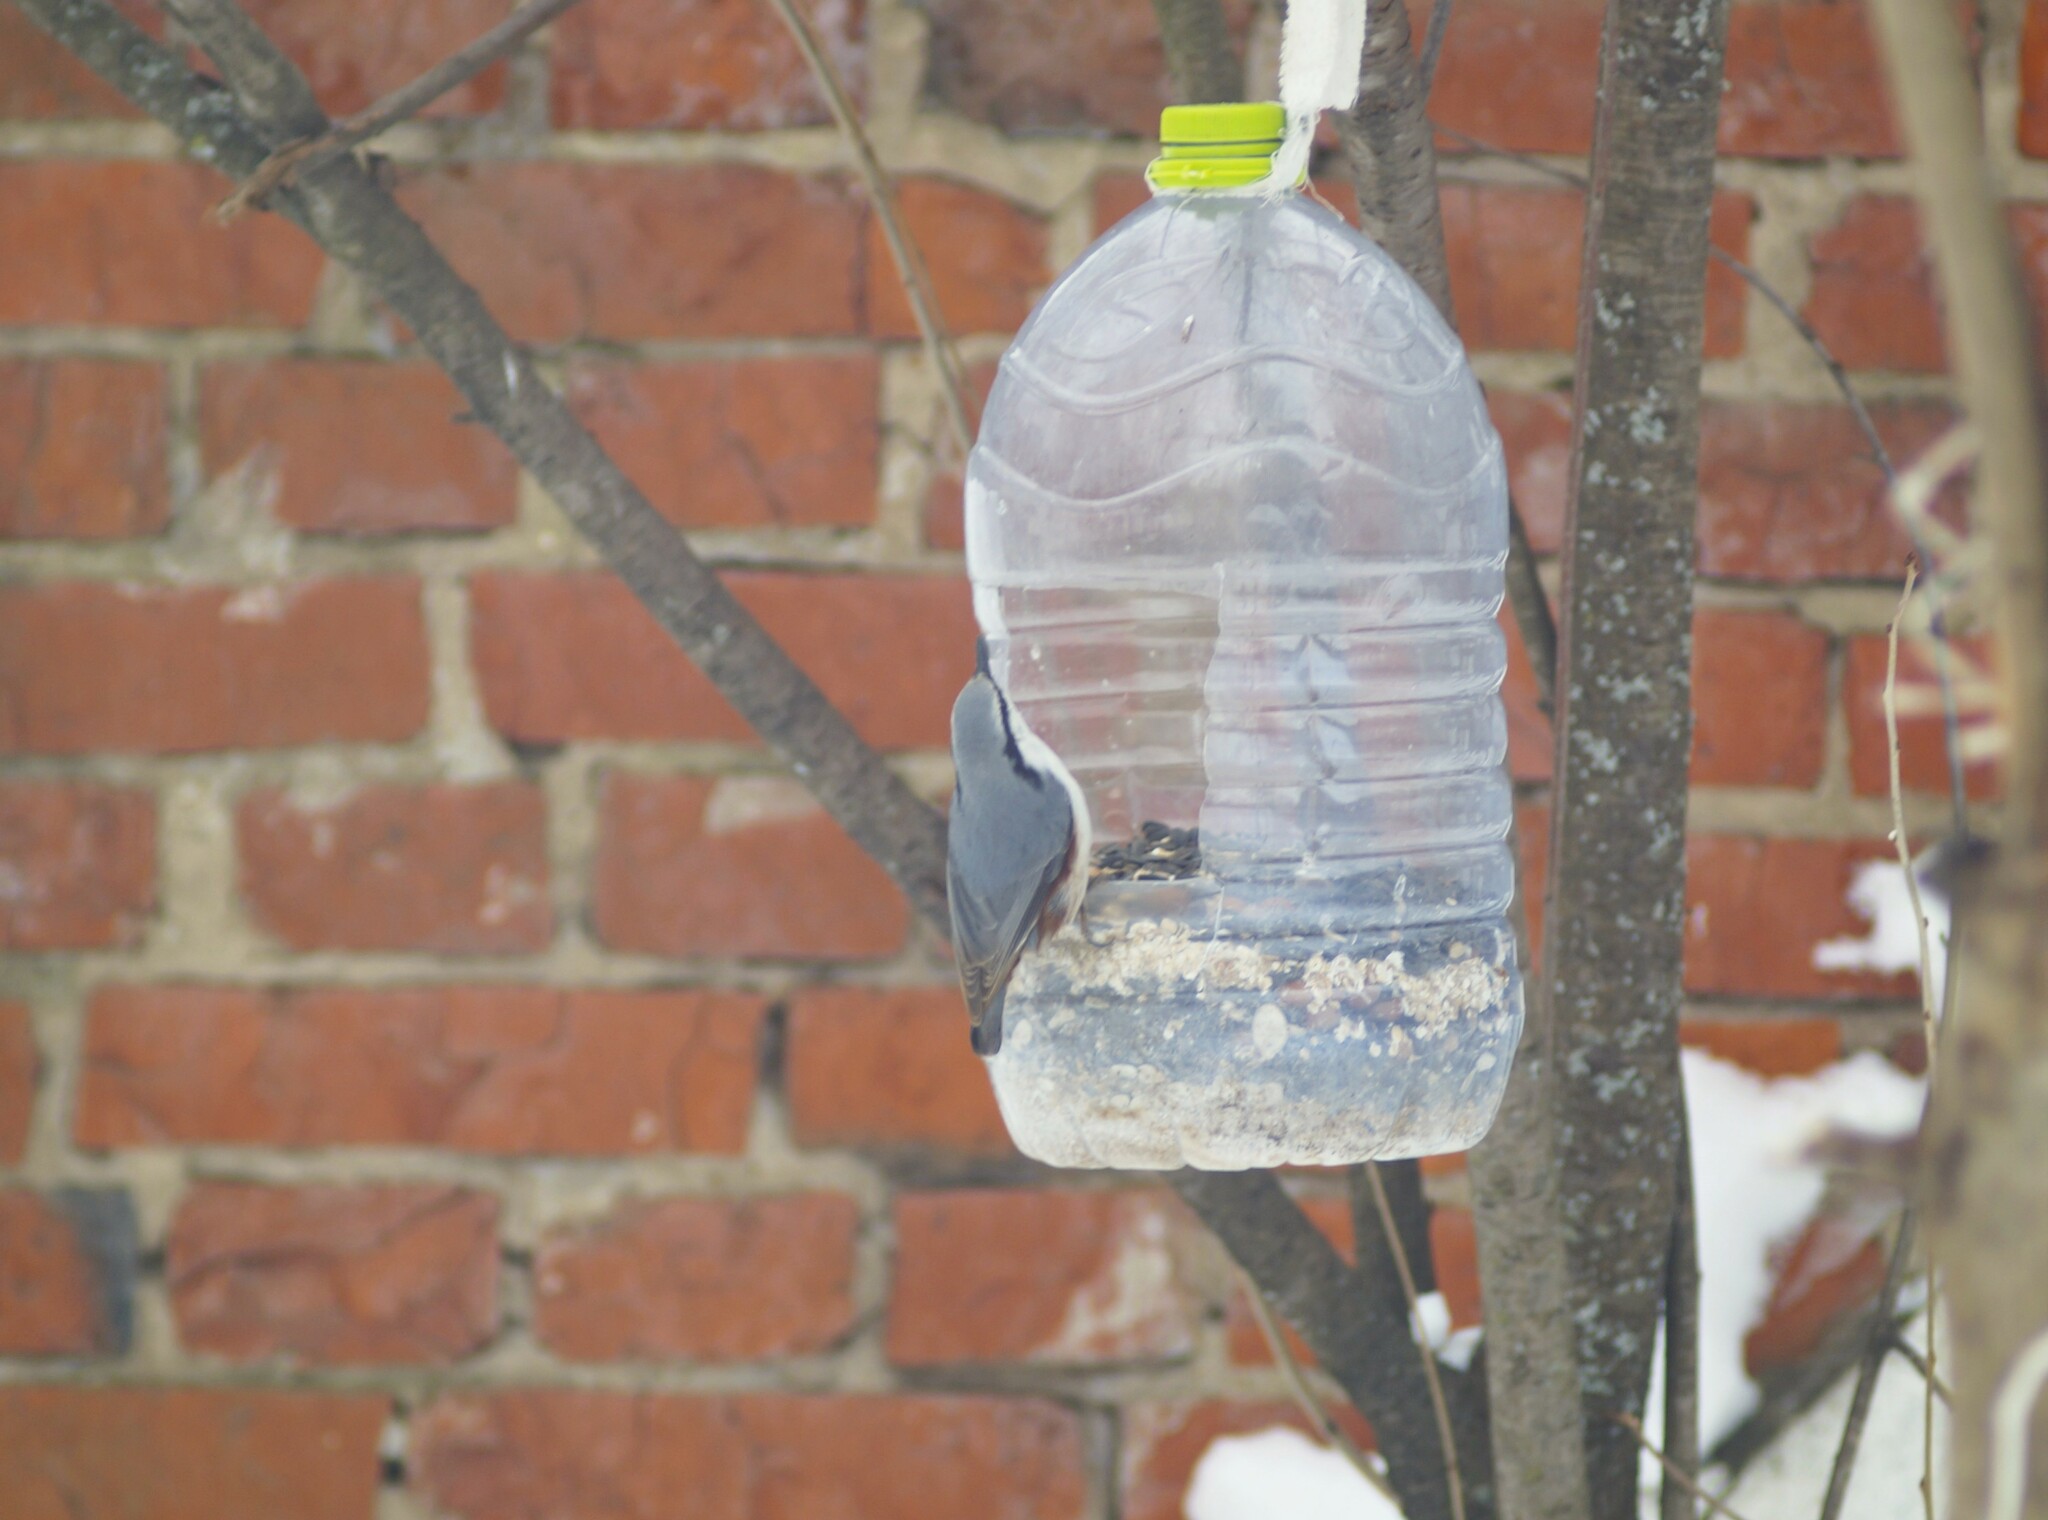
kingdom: Animalia
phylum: Chordata
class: Aves
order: Passeriformes
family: Sittidae
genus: Sitta
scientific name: Sitta europaea
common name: Eurasian nuthatch
